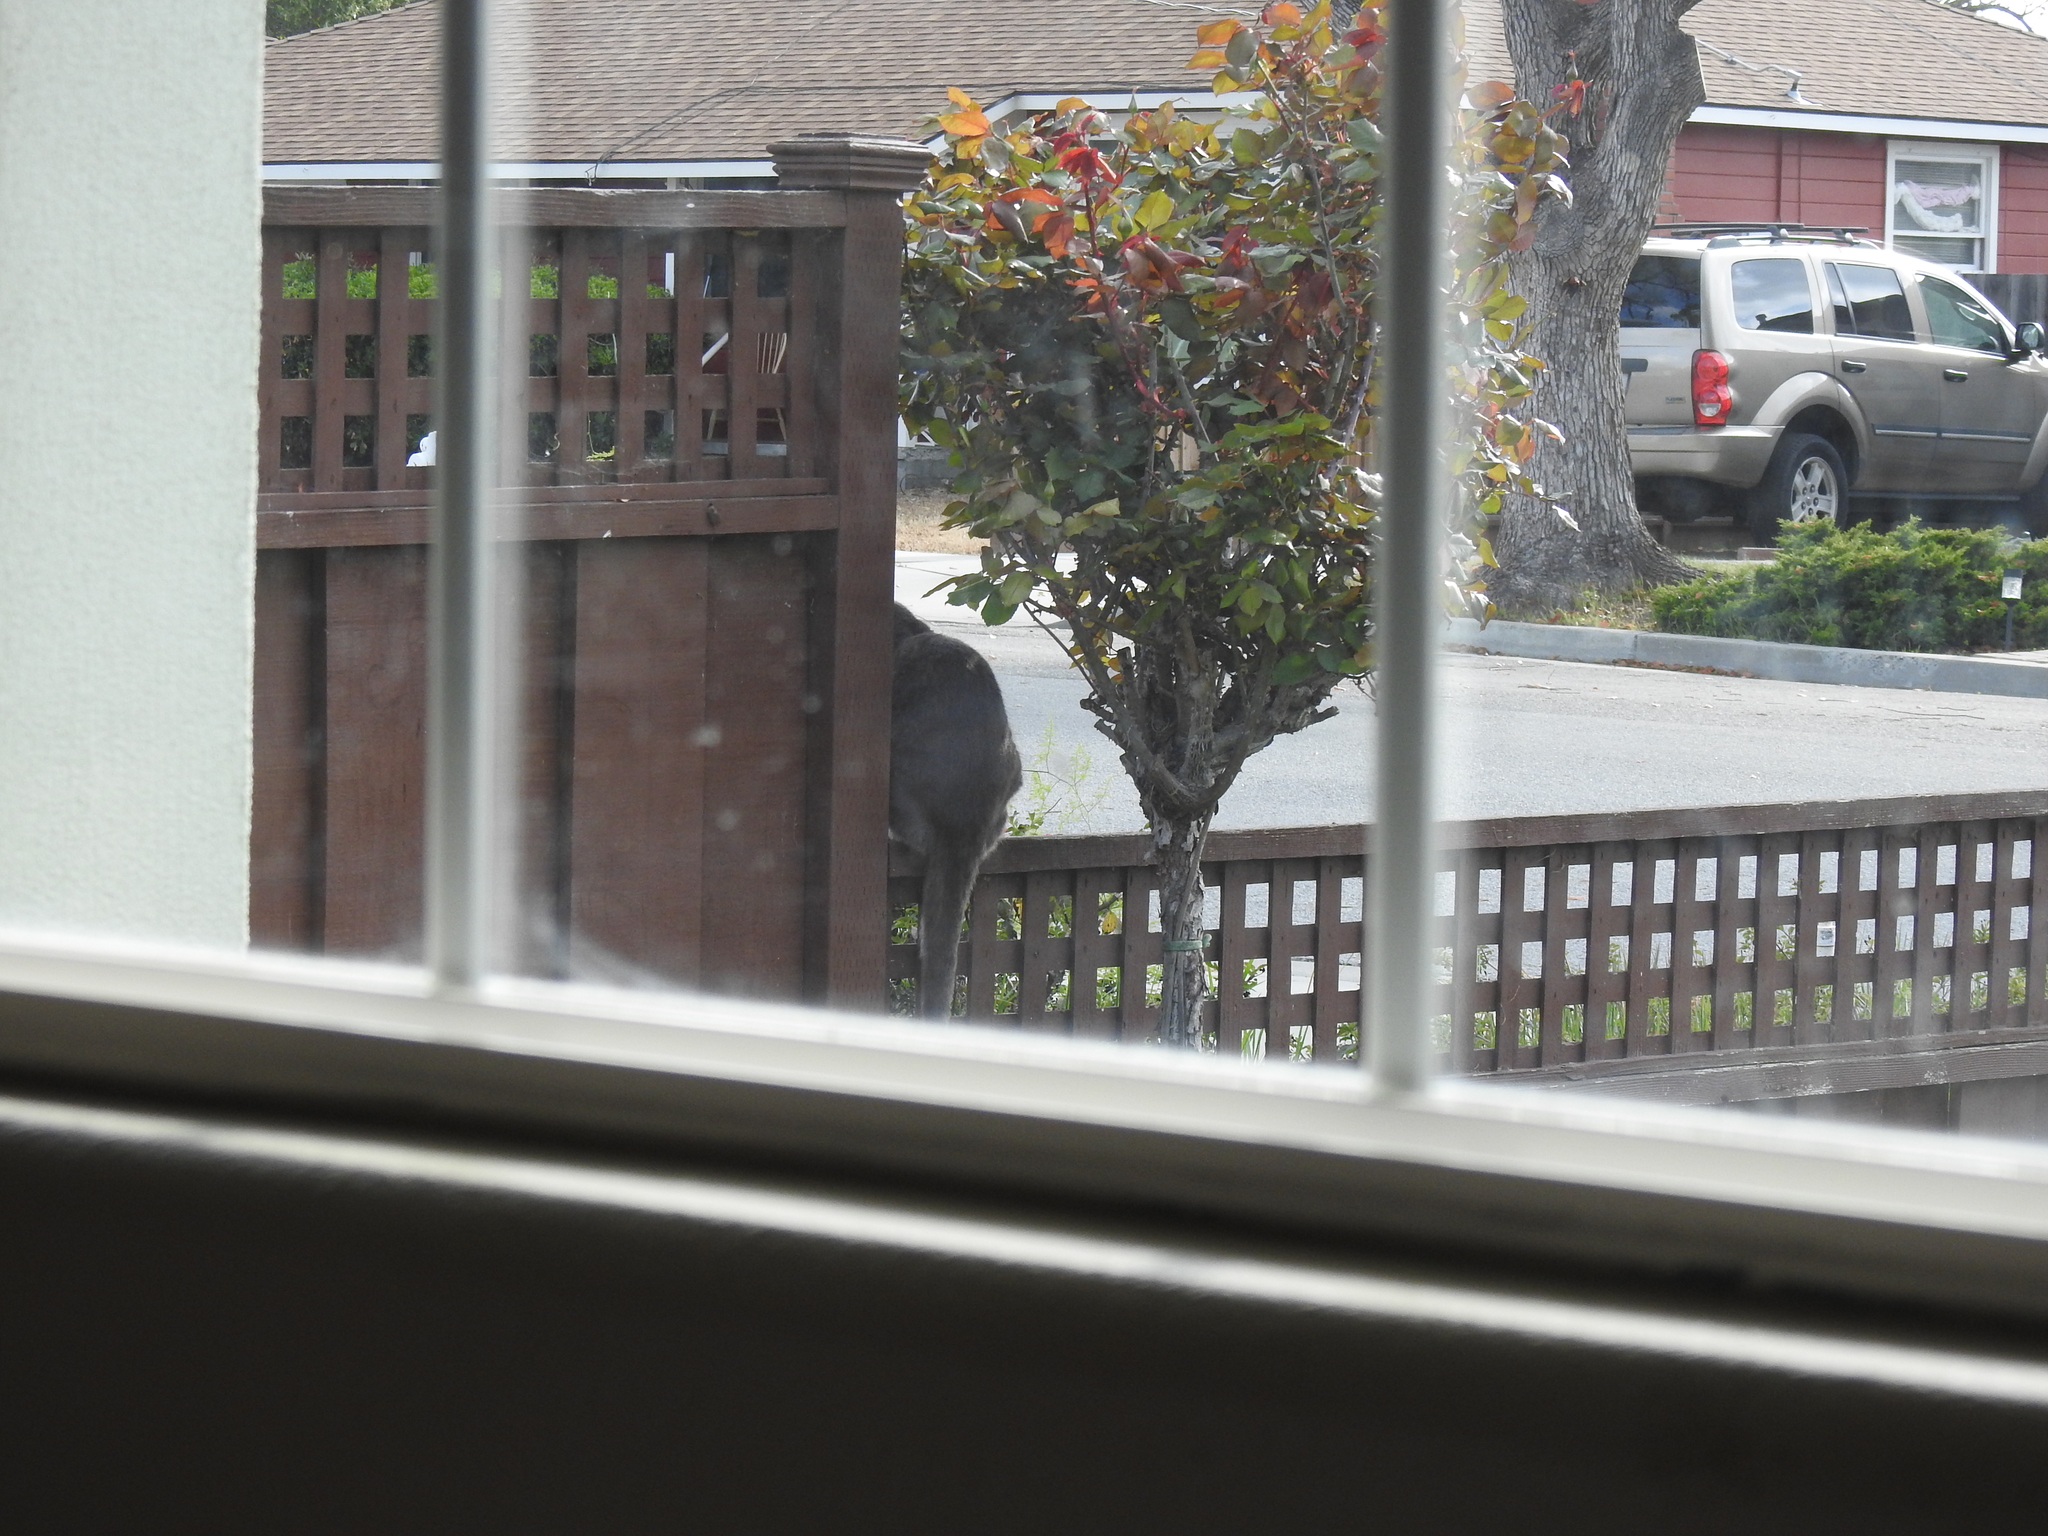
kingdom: Animalia
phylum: Chordata
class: Mammalia
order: Carnivora
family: Felidae
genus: Felis
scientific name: Felis catus
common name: Domestic cat
